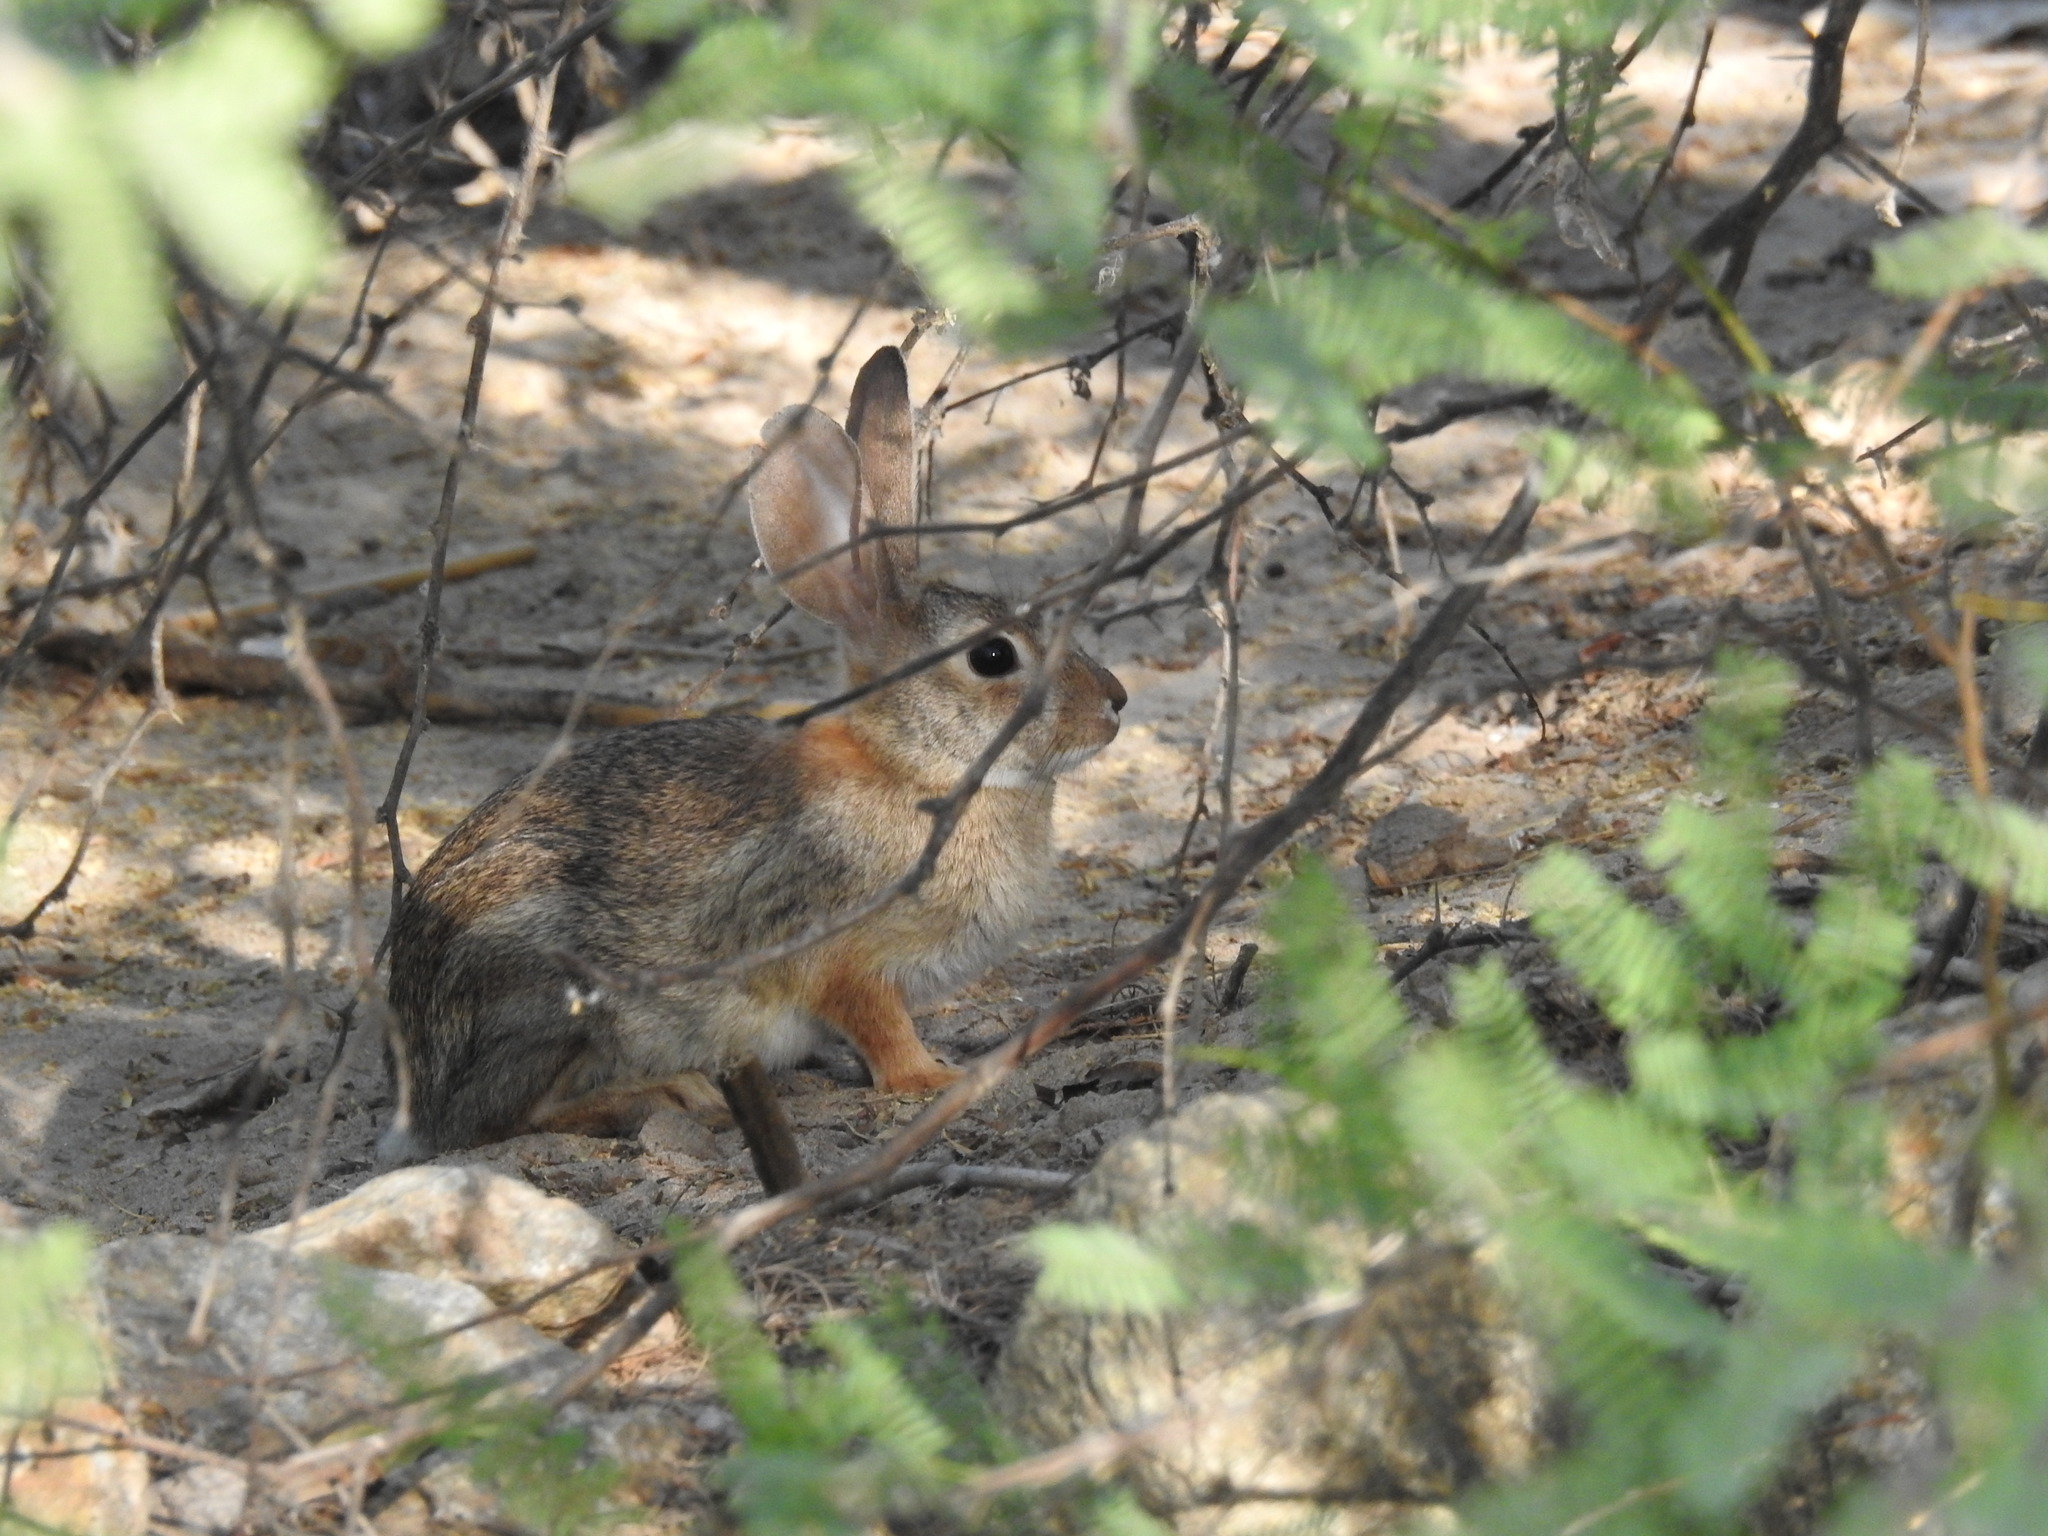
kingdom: Animalia
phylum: Chordata
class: Mammalia
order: Lagomorpha
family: Leporidae
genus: Sylvilagus
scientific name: Sylvilagus audubonii
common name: Desert cottontail
